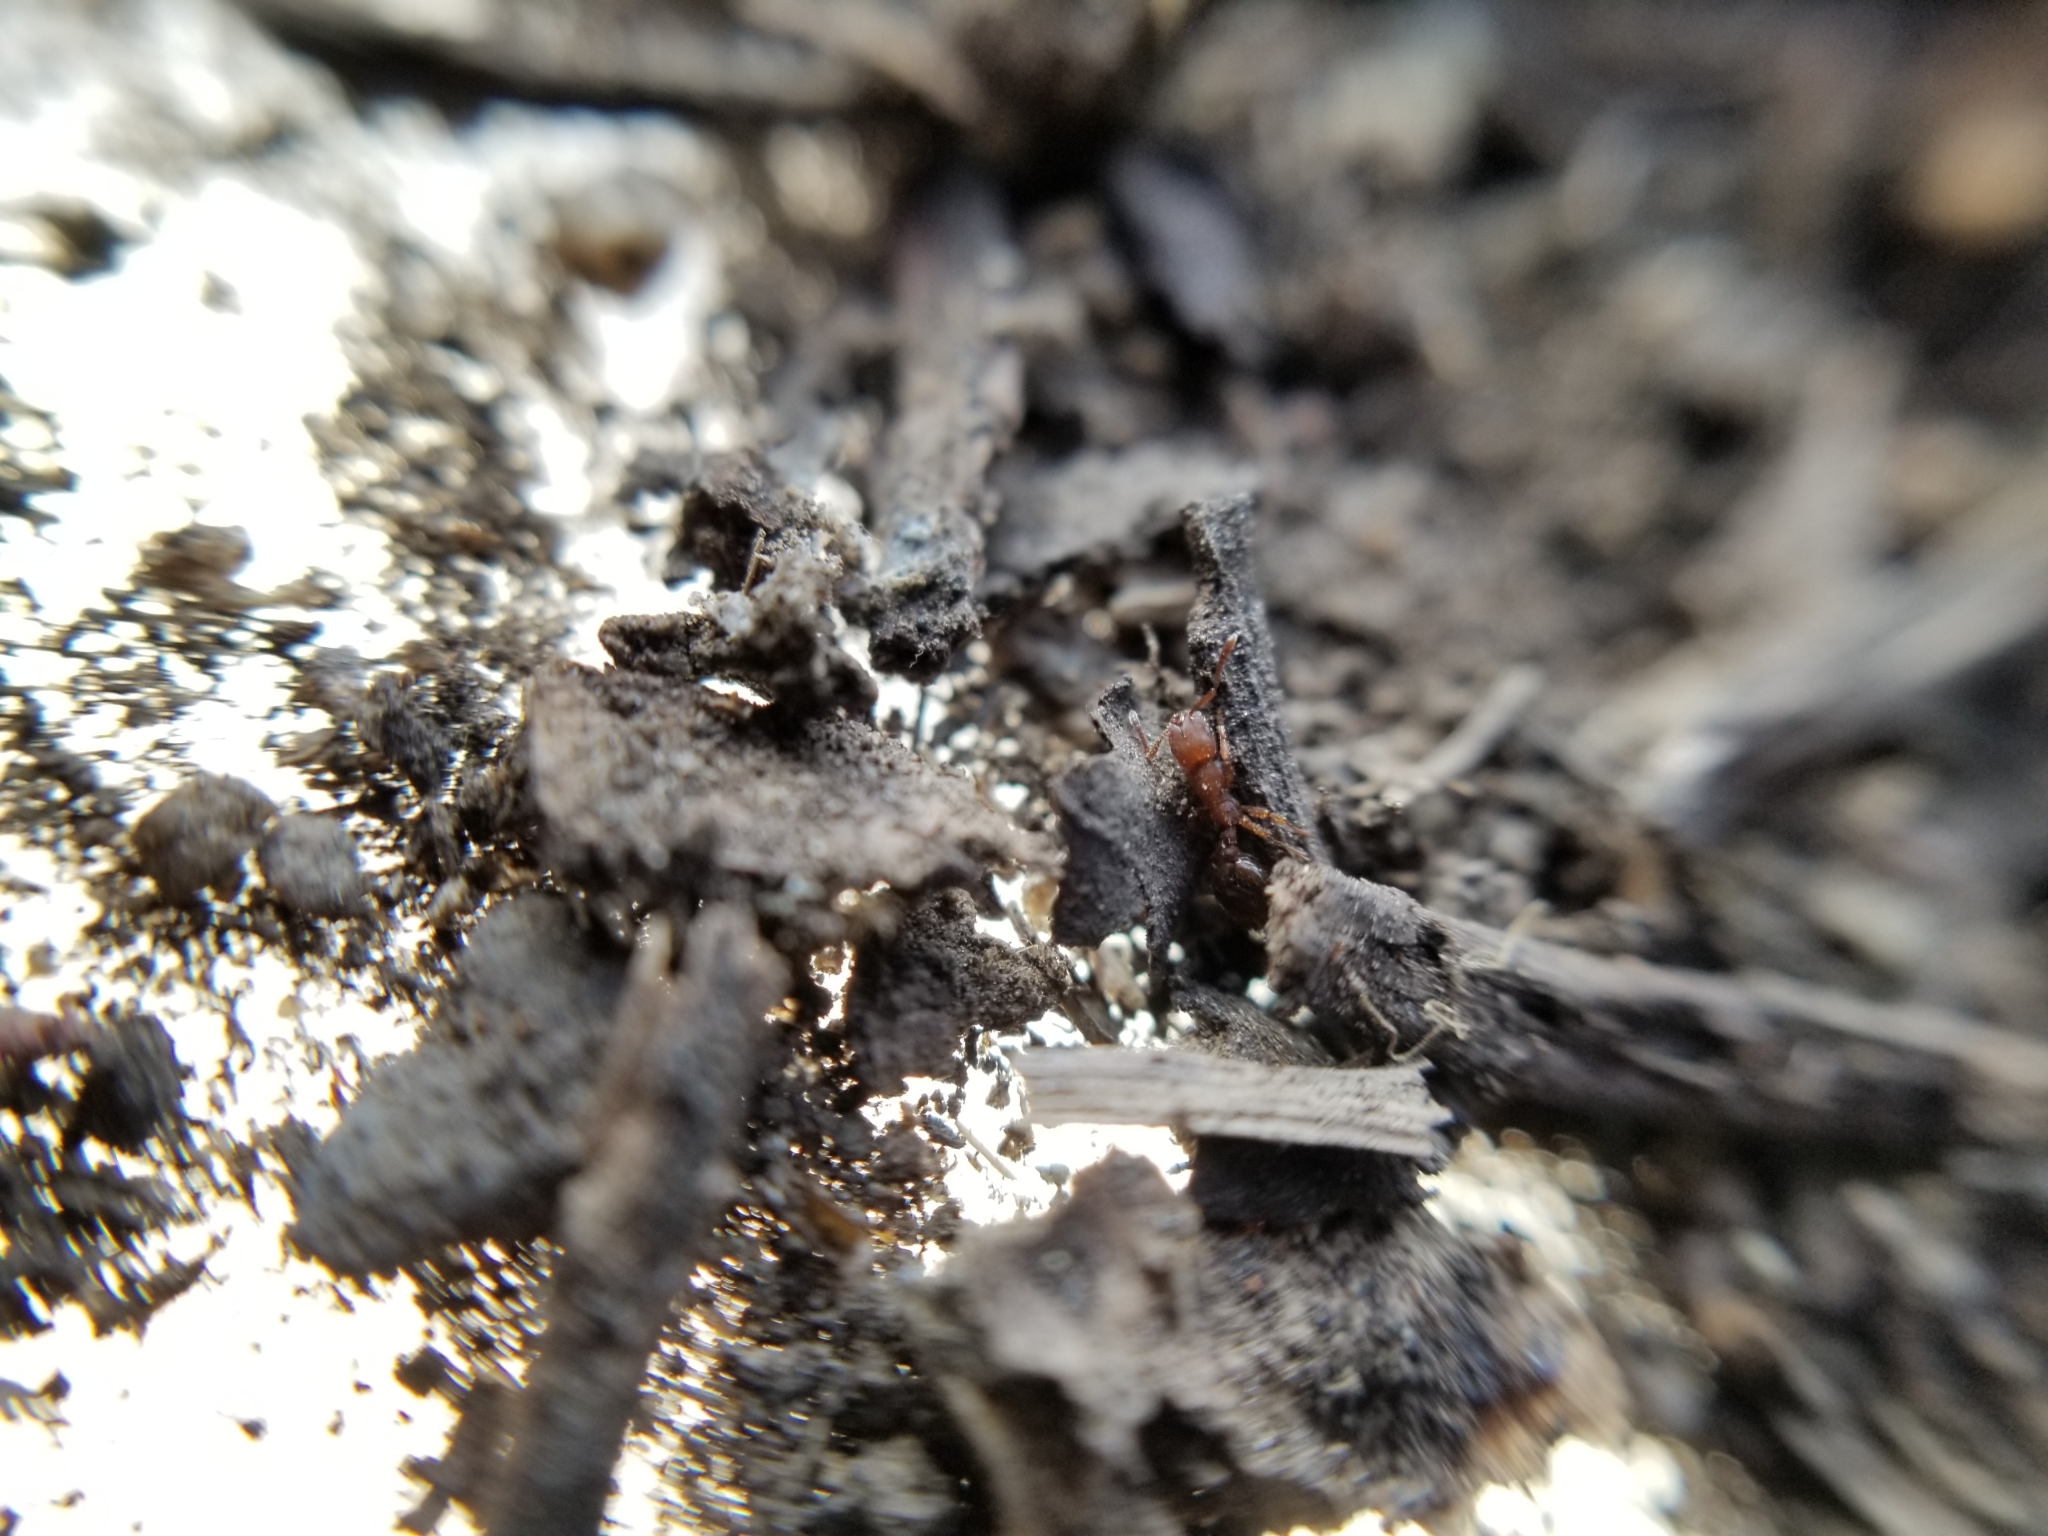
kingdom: Animalia
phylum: Arthropoda
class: Insecta
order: Hymenoptera
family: Formicidae
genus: Formicoxenus
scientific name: Formicoxenus hirticornis
